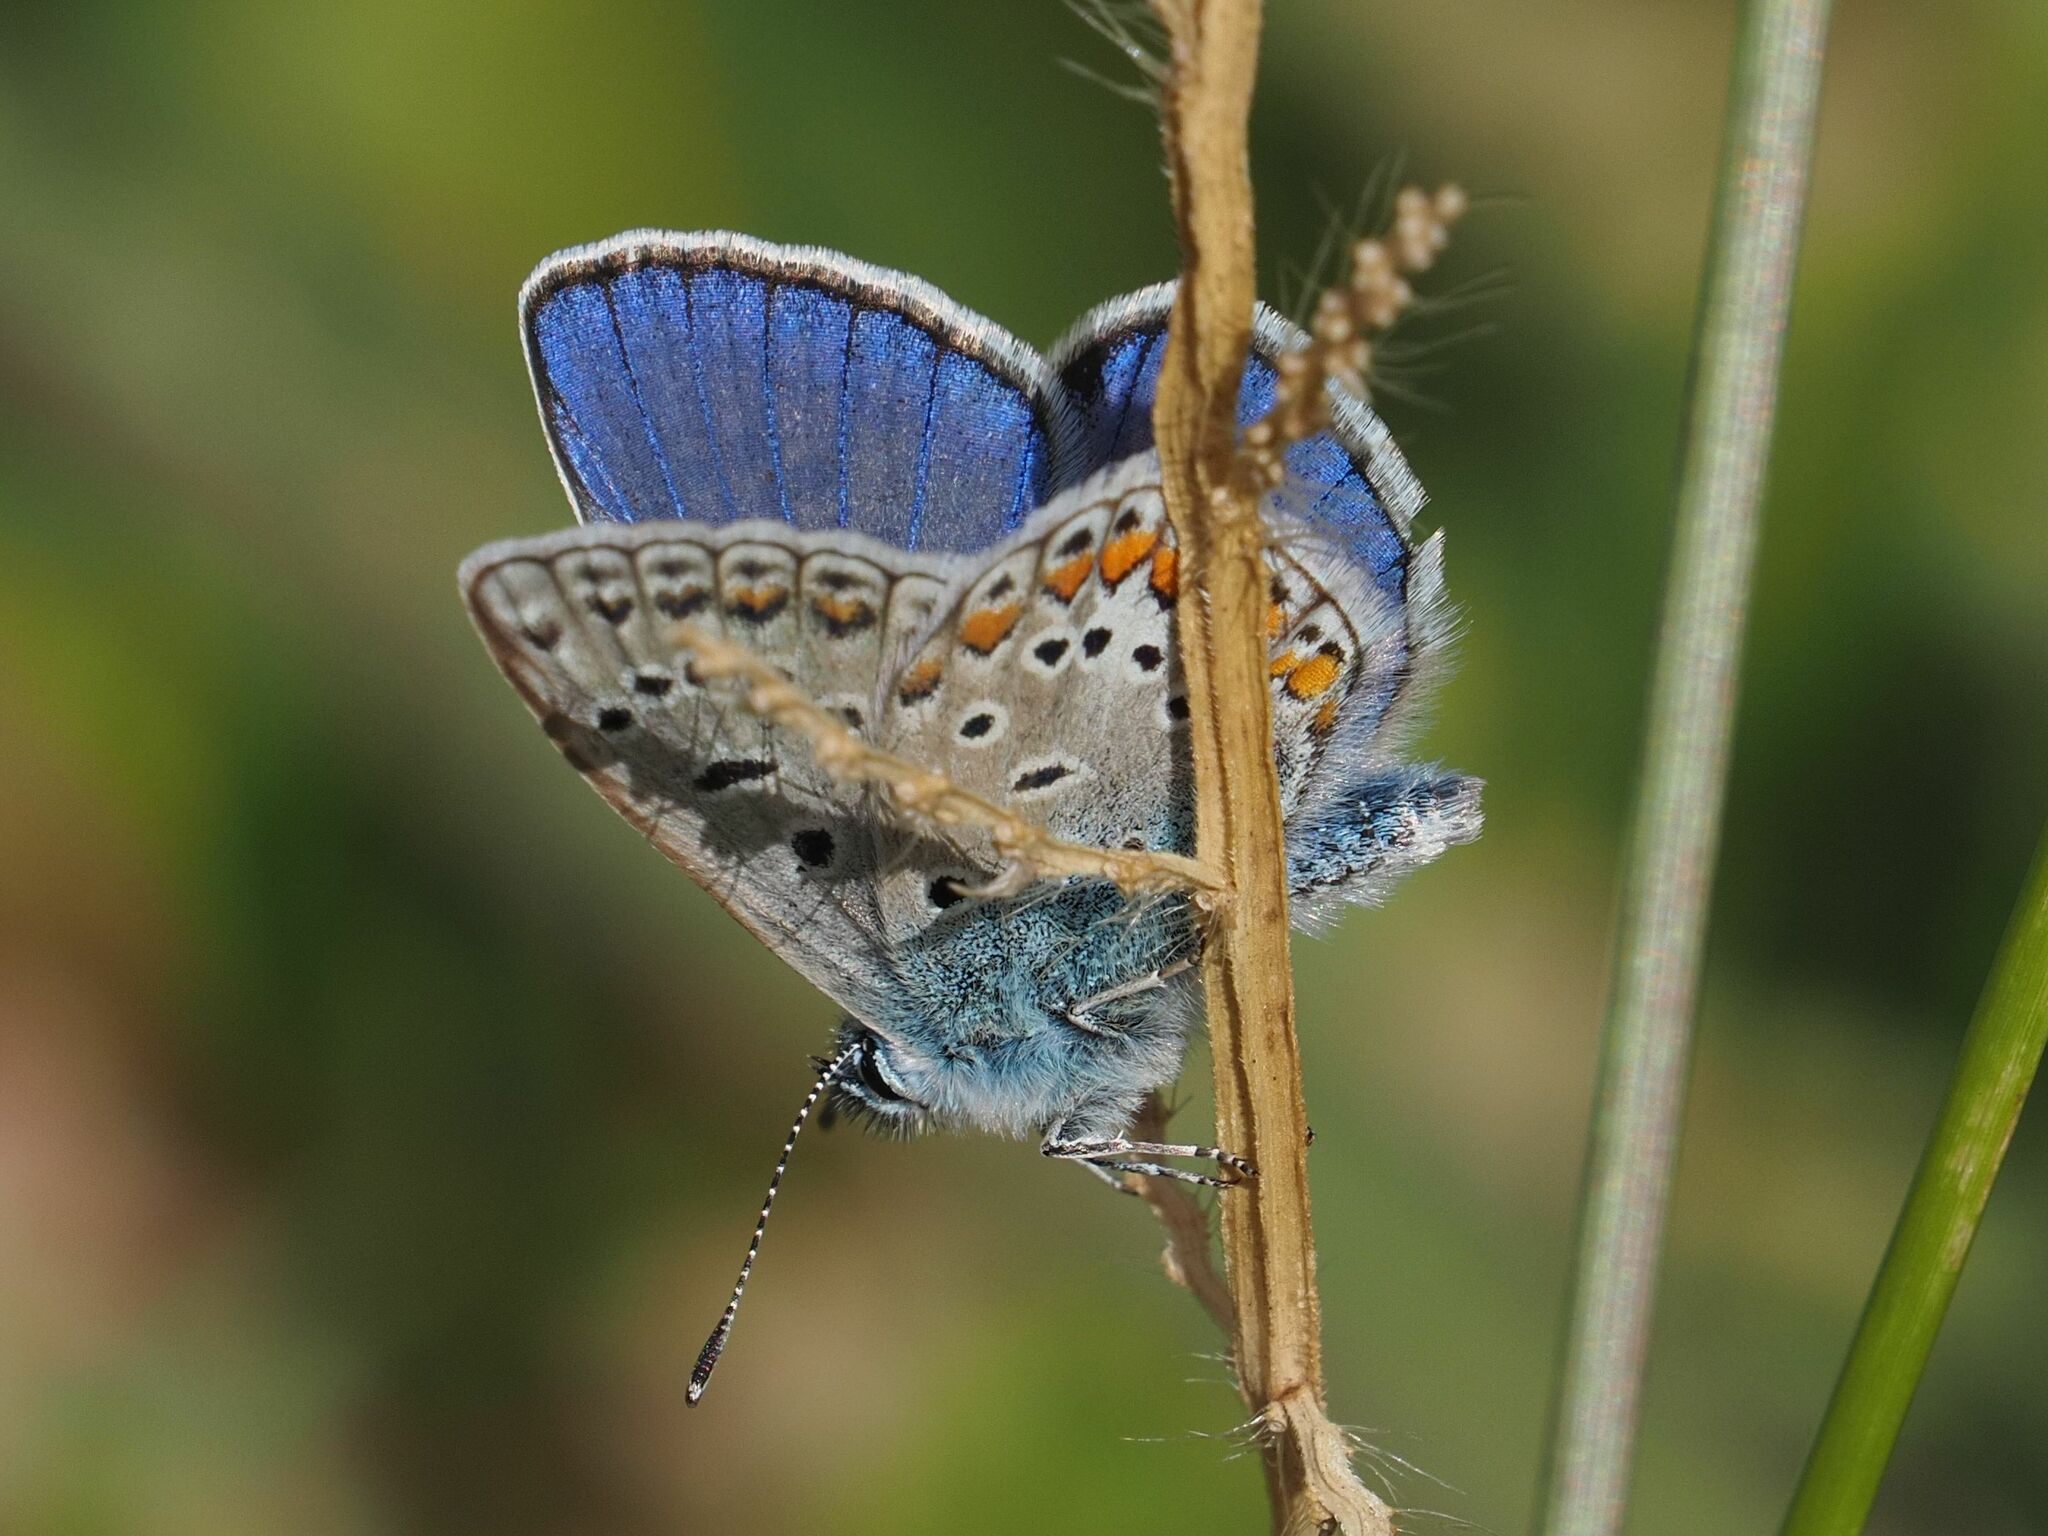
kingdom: Animalia
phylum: Arthropoda
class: Insecta
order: Lepidoptera
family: Lycaenidae
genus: Polyommatus
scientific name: Polyommatus icarus
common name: Common blue
